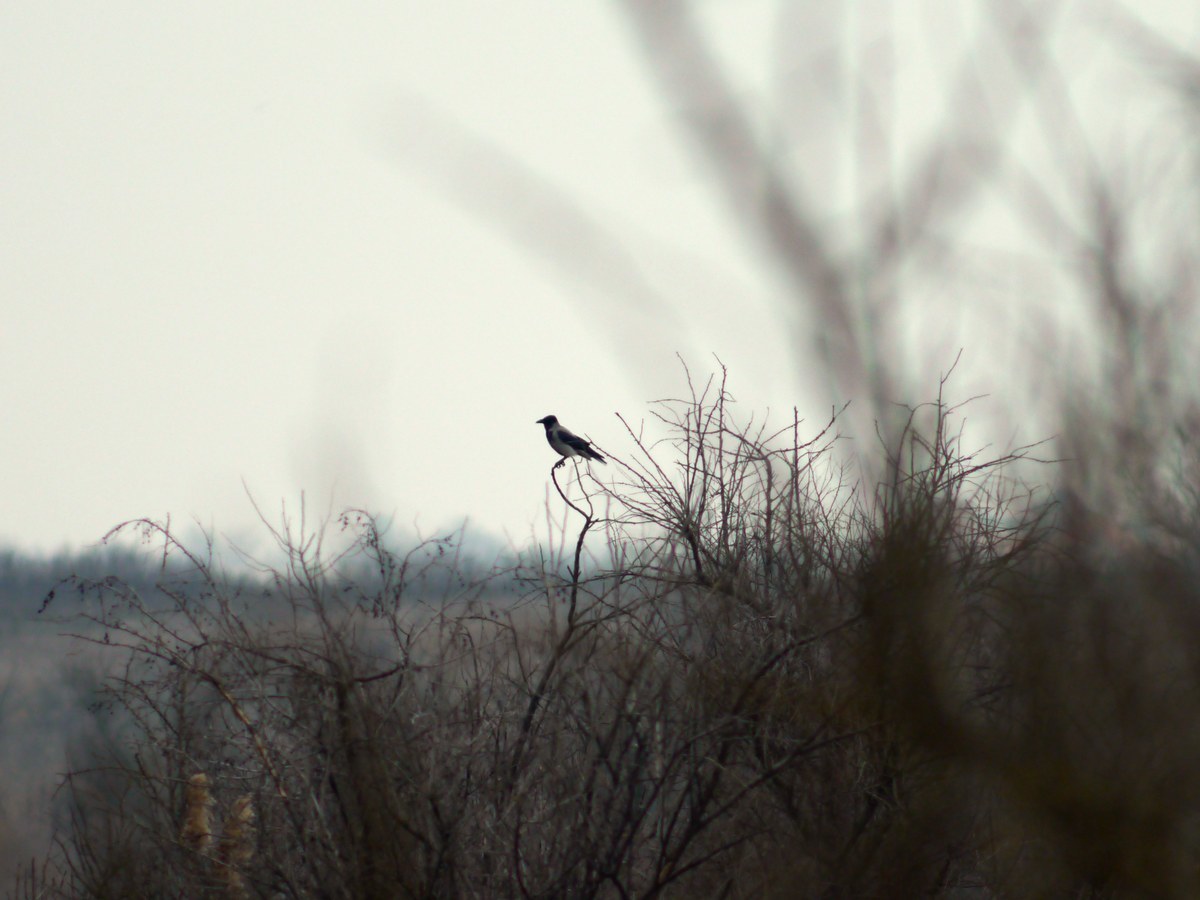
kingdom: Animalia
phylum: Chordata
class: Aves
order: Passeriformes
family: Corvidae
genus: Corvus
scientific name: Corvus cornix
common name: Hooded crow
